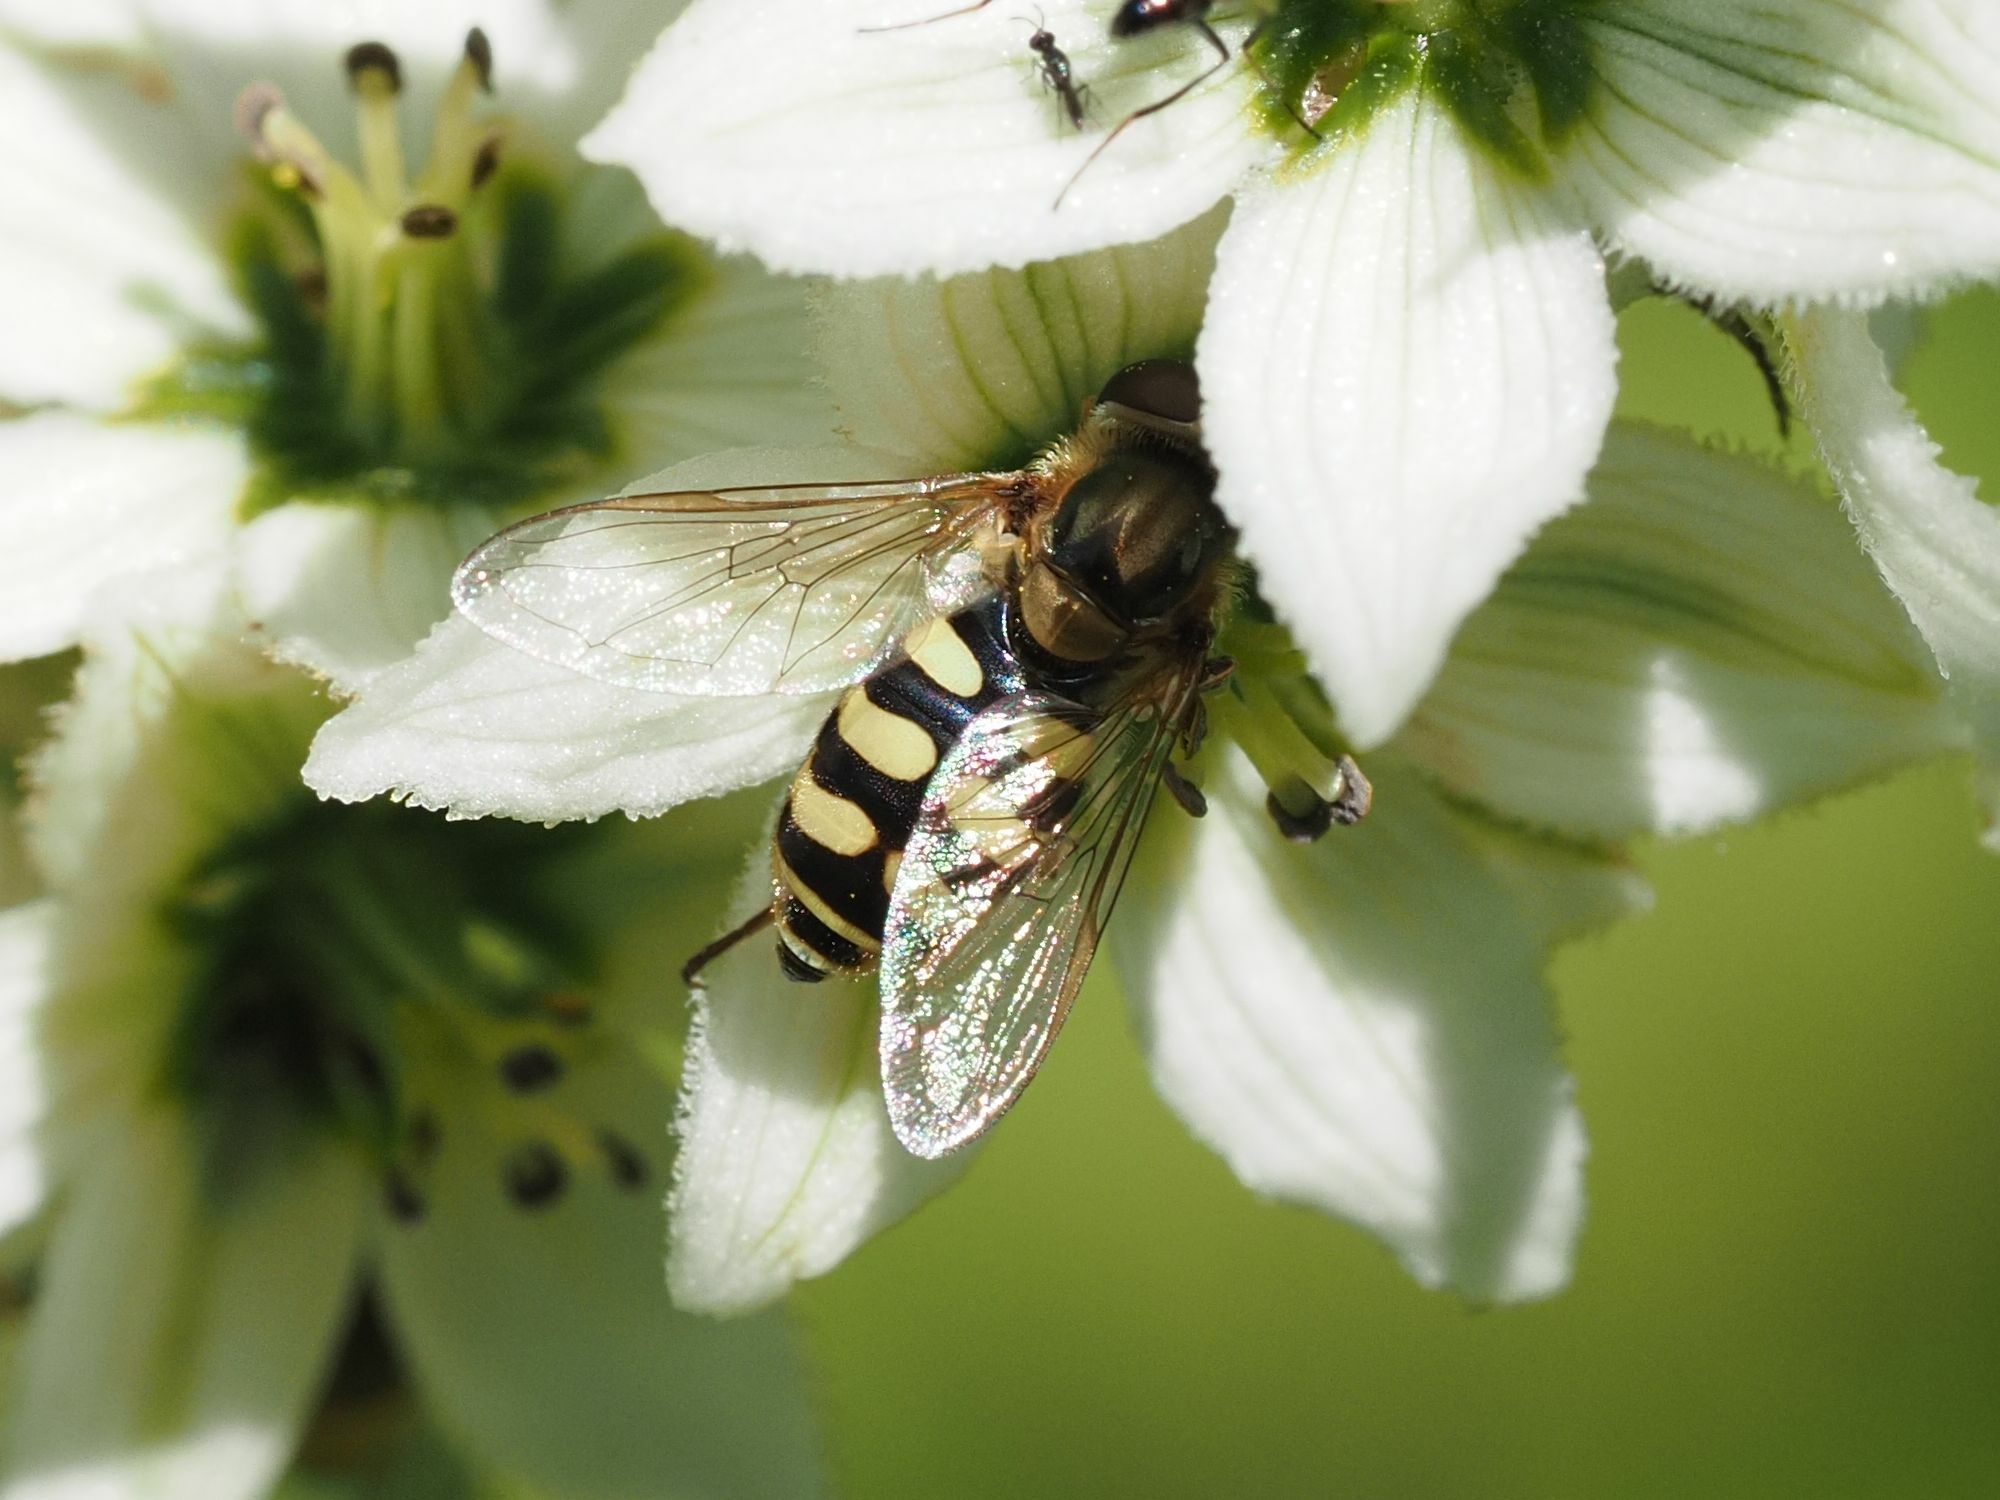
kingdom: Animalia
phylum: Arthropoda
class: Insecta
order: Diptera
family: Syrphidae
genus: Eupeodes
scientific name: Eupeodes luniger
